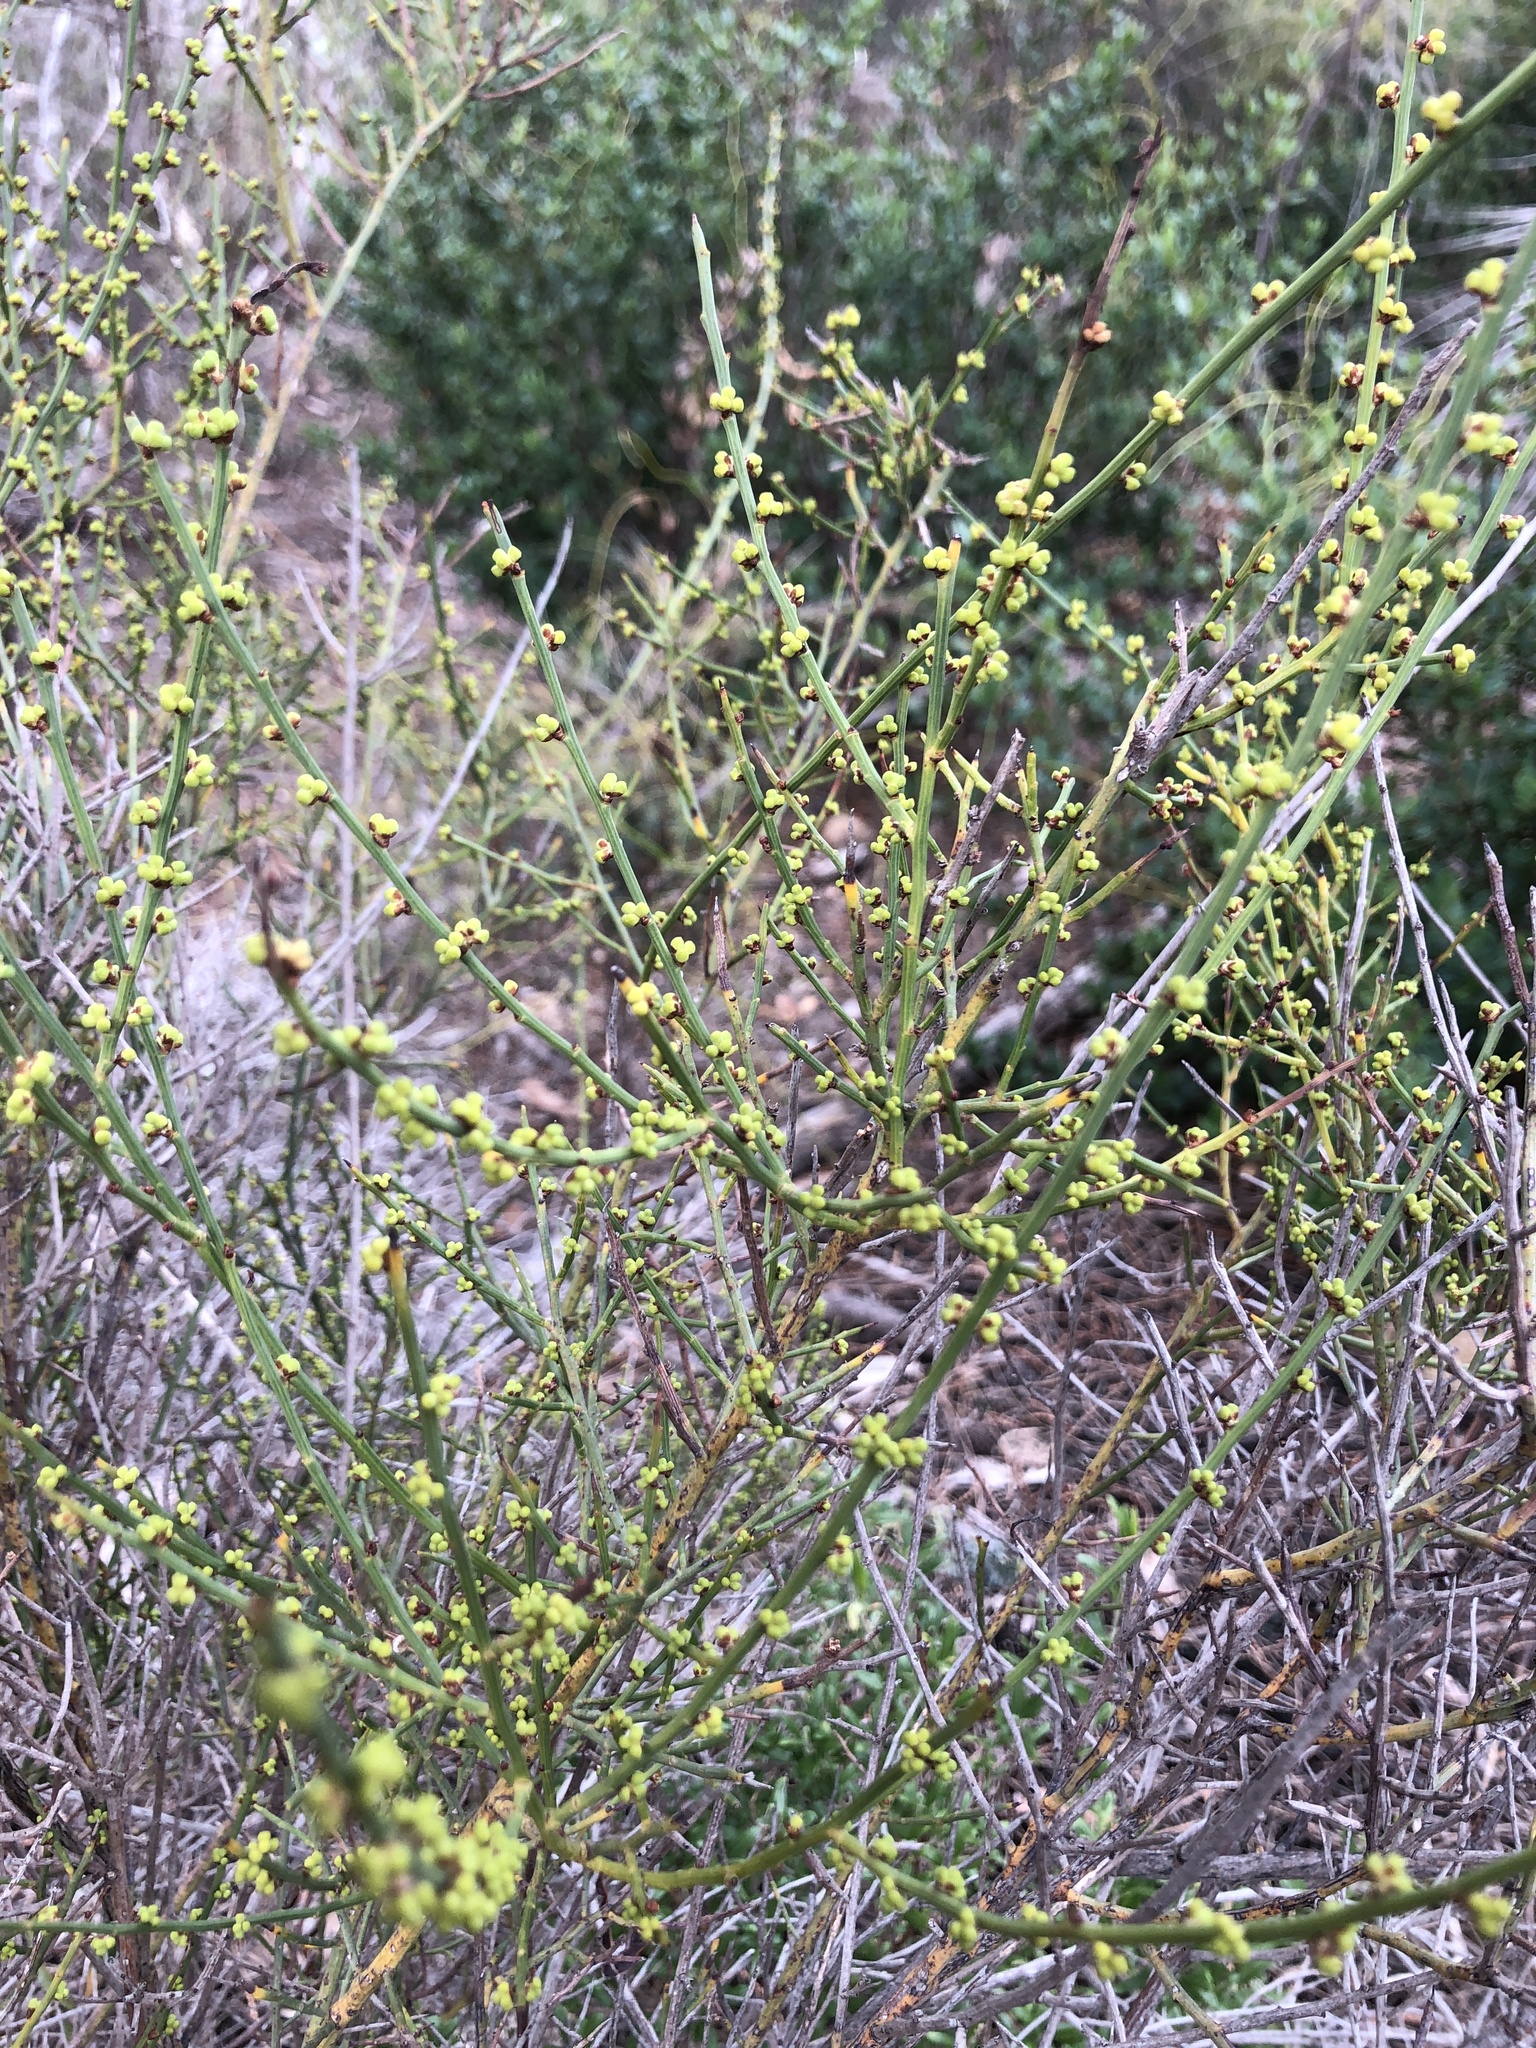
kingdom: Plantae
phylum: Tracheophyta
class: Magnoliopsida
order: Fabales
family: Fabaceae
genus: Acacia
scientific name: Acacia spinescens
